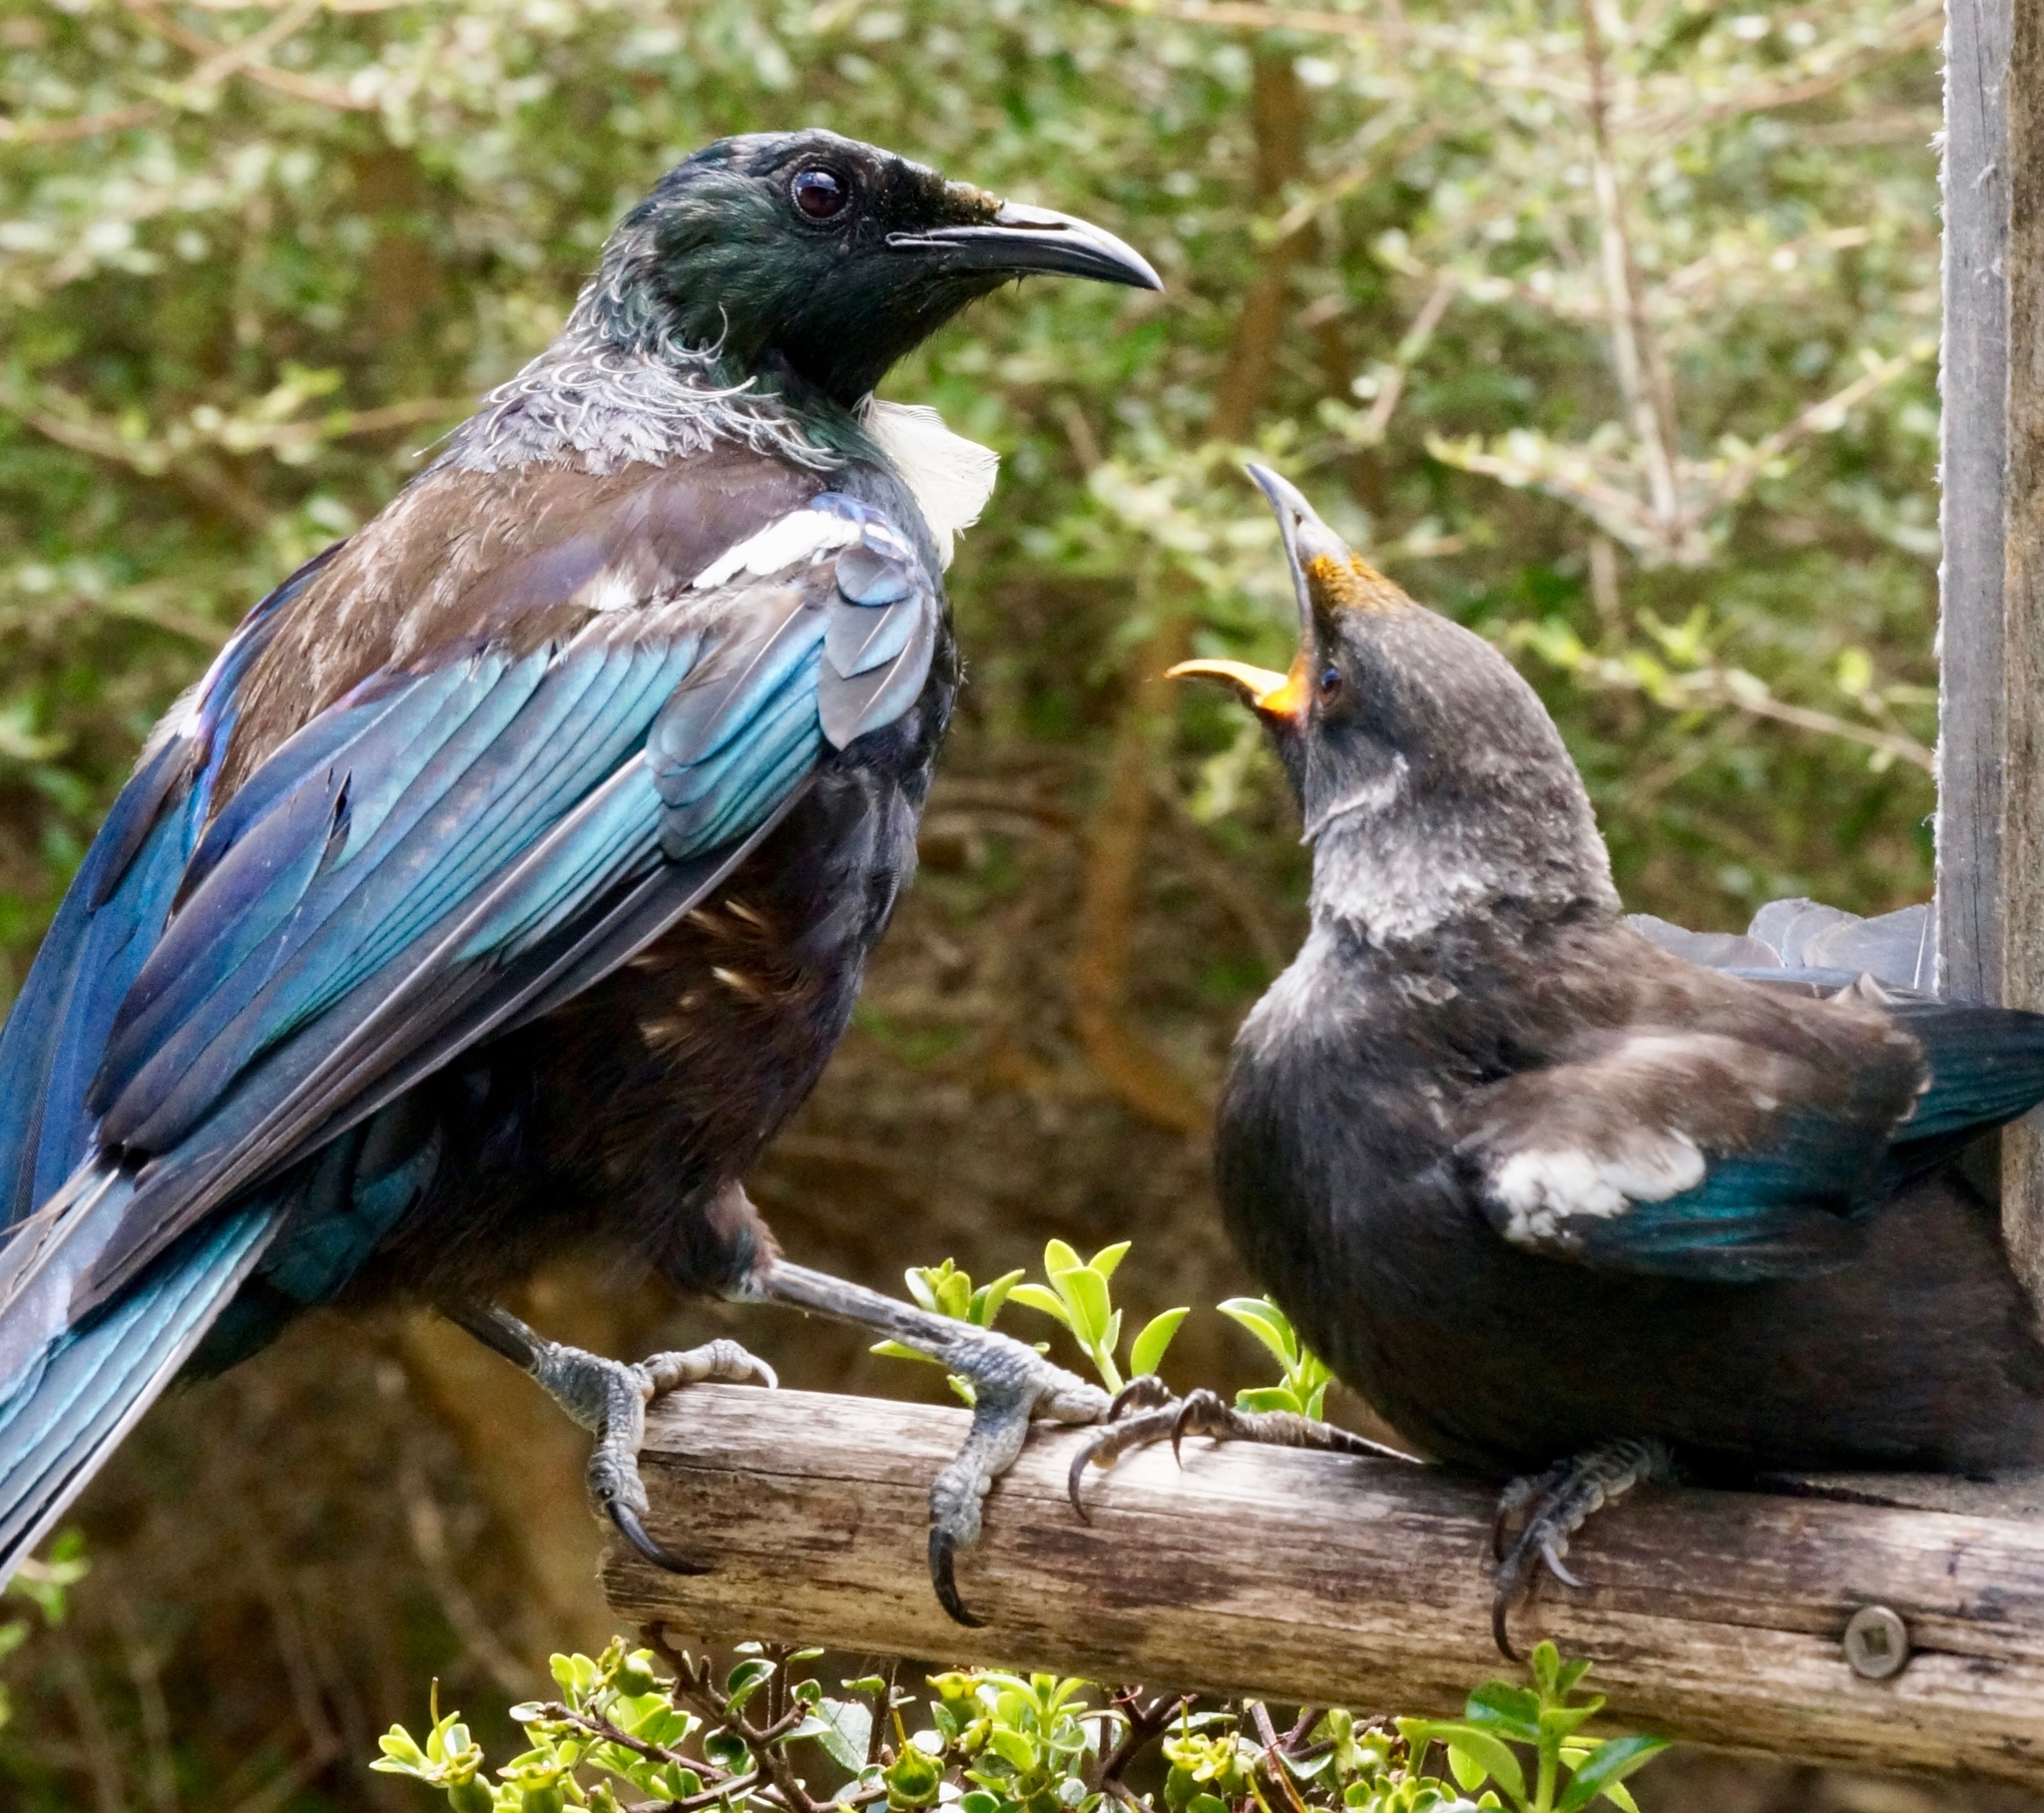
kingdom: Animalia
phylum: Chordata
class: Aves
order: Passeriformes
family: Meliphagidae
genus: Prosthemadera
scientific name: Prosthemadera novaeseelandiae
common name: Tui
